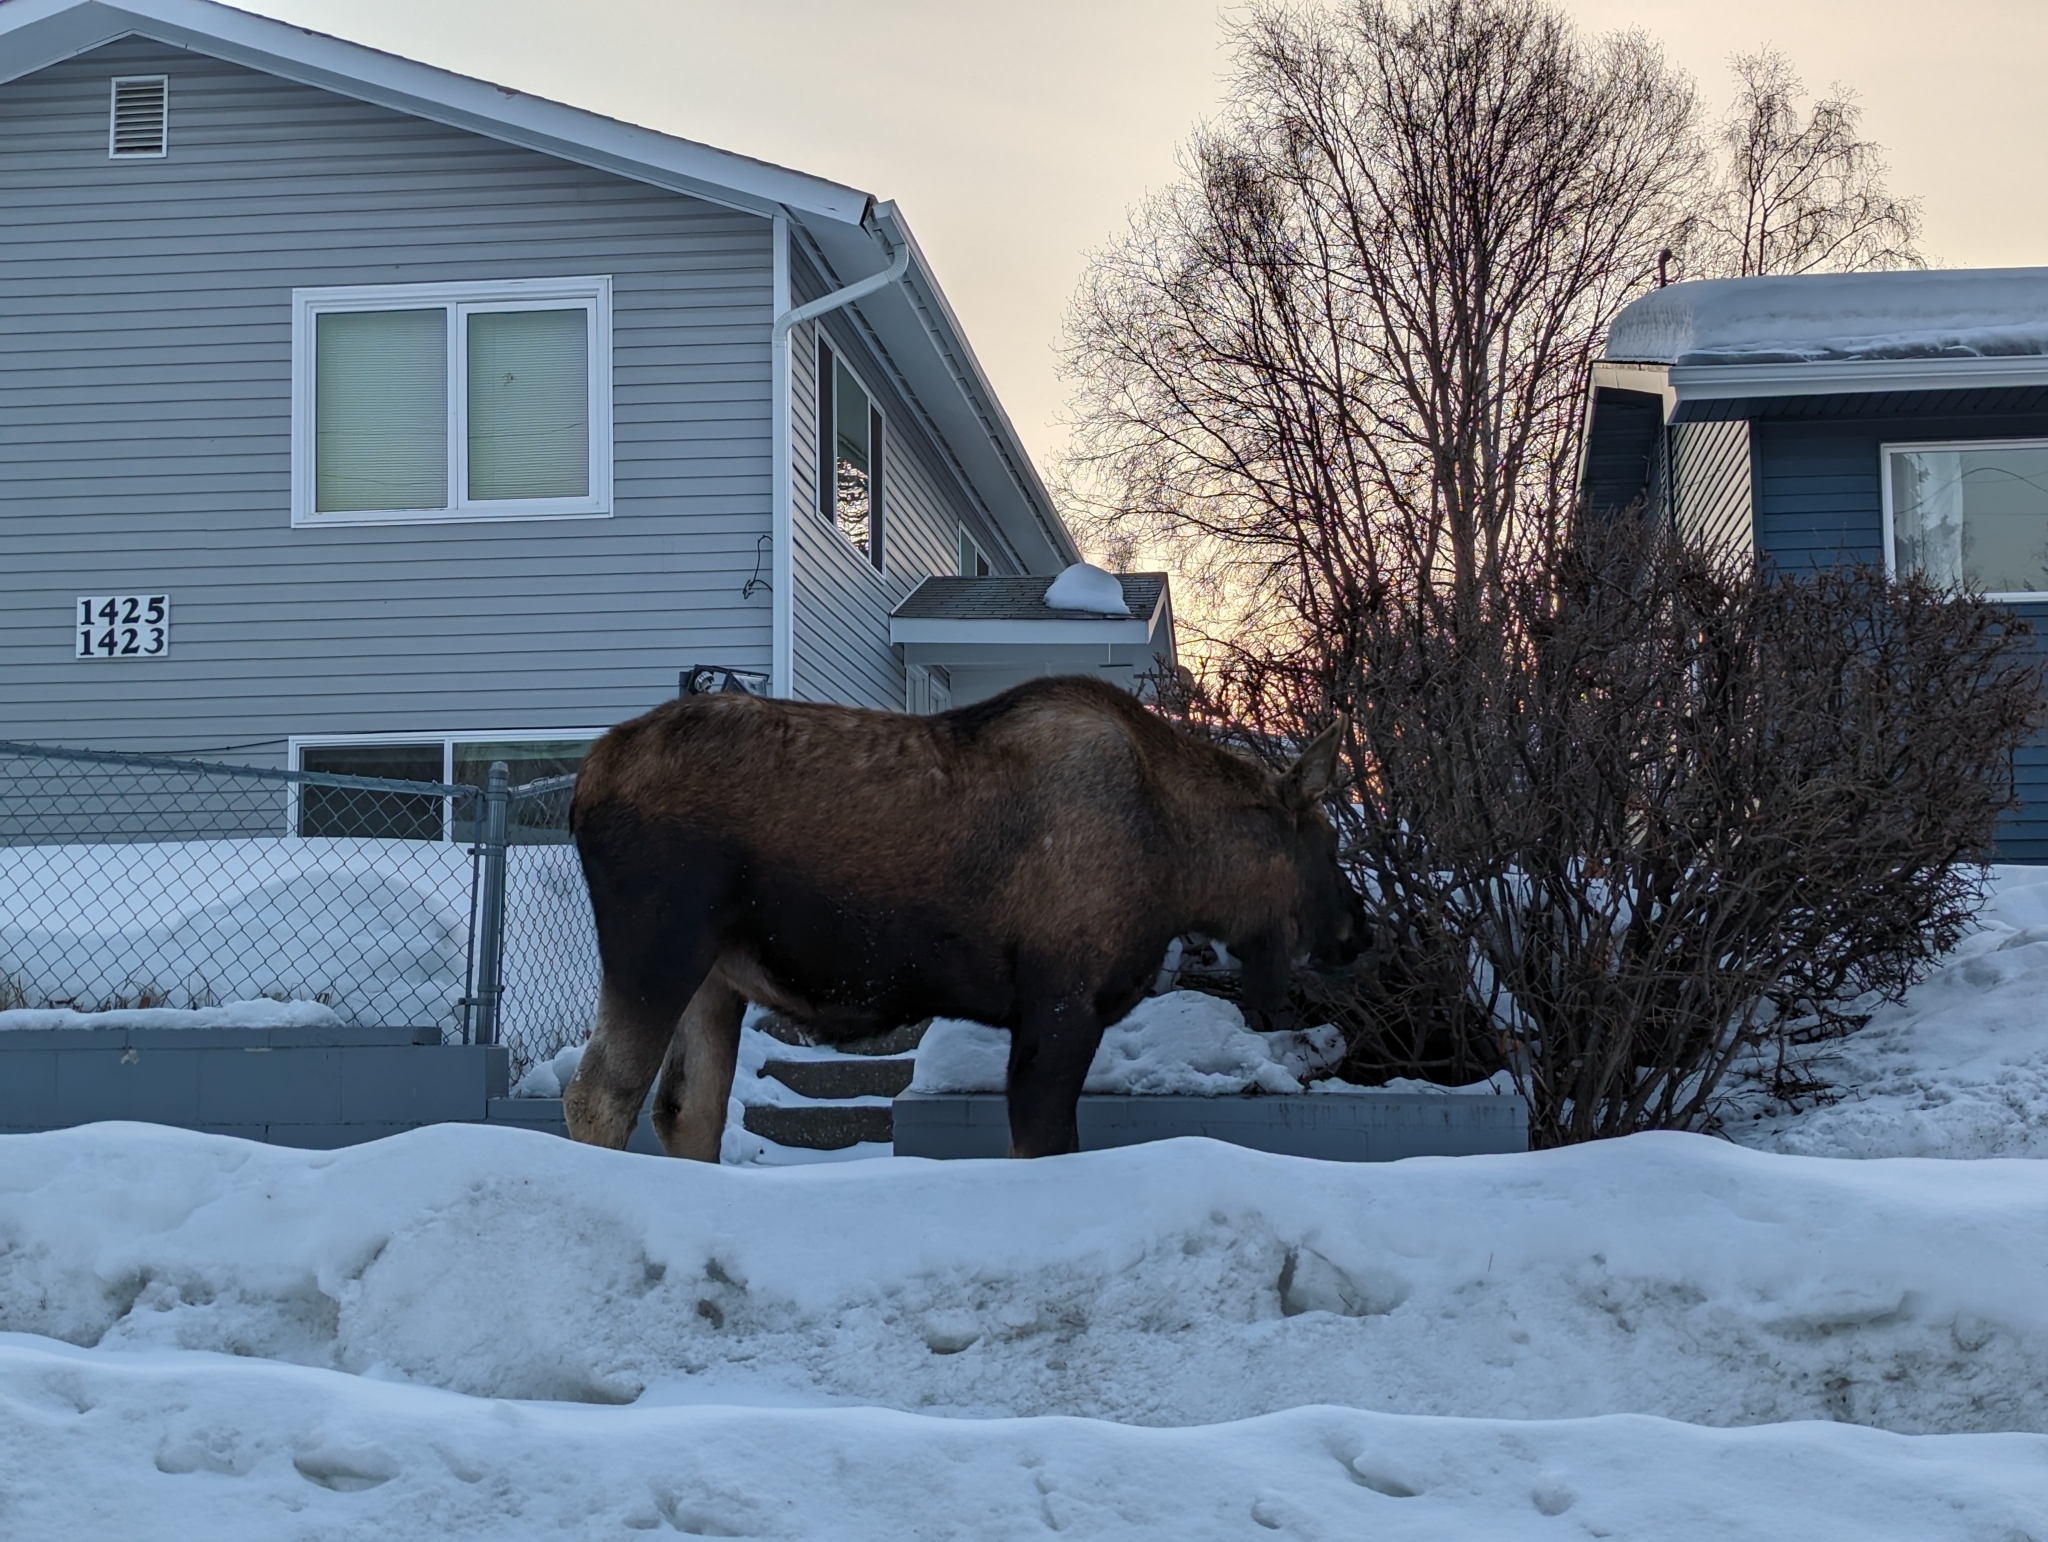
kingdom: Animalia
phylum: Chordata
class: Mammalia
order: Artiodactyla
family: Cervidae
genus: Alces
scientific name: Alces alces
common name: Moose
